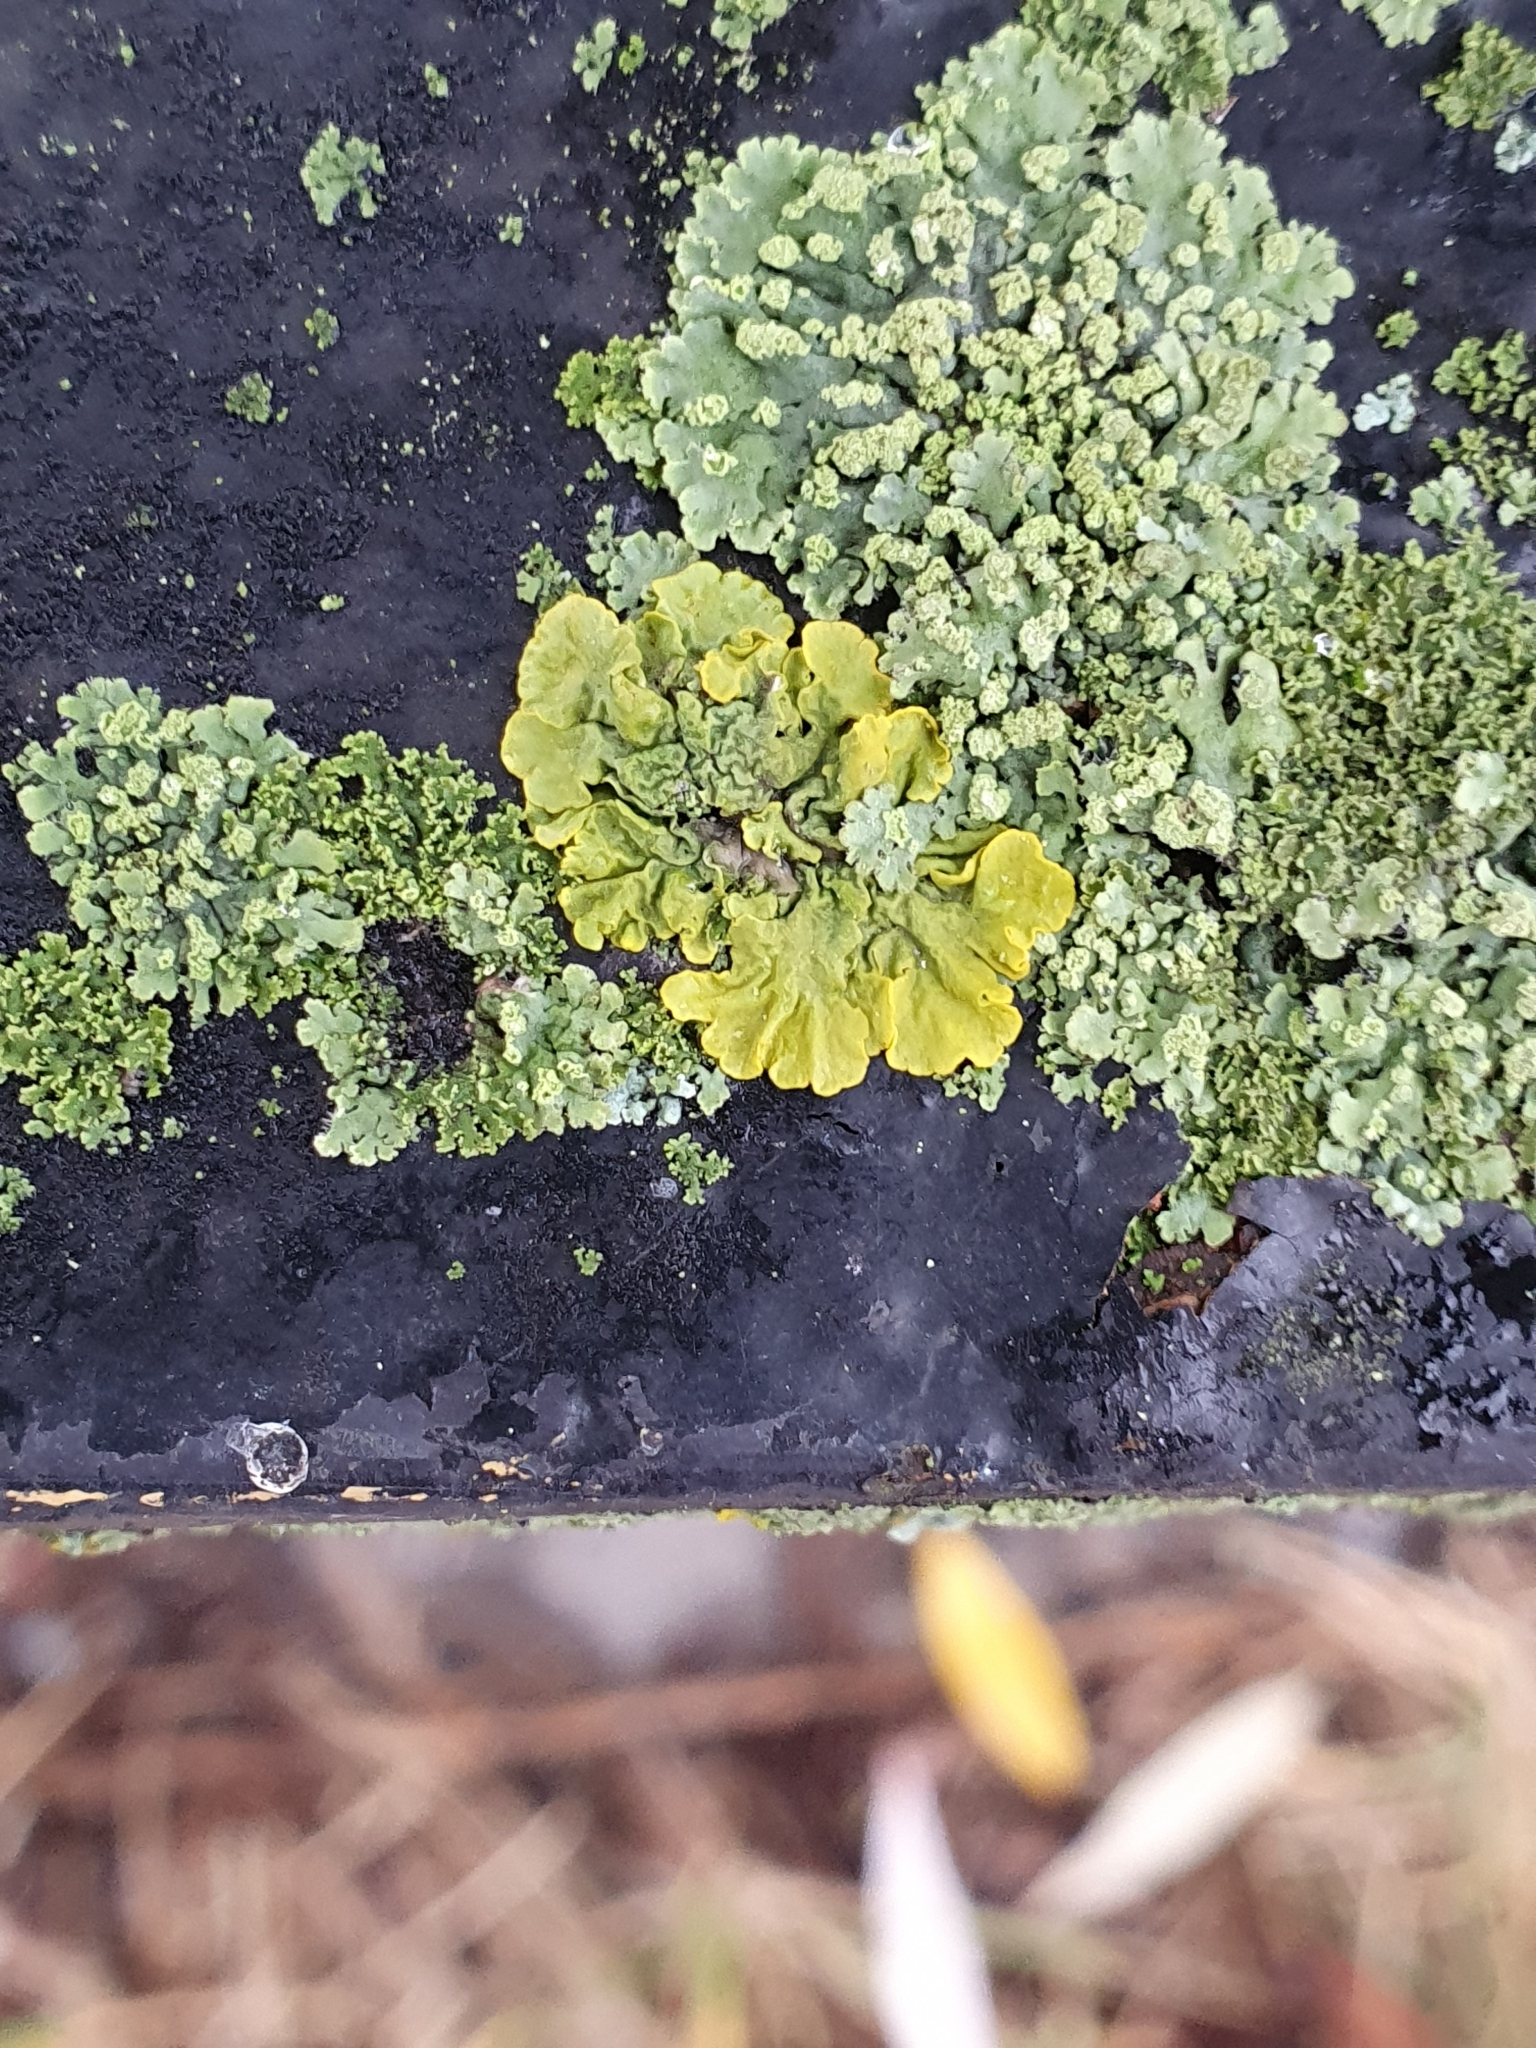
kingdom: Fungi
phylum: Ascomycota
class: Lecanoromycetes
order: Teloschistales
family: Teloschistaceae
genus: Xanthoria
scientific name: Xanthoria parietina
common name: Common orange lichen
